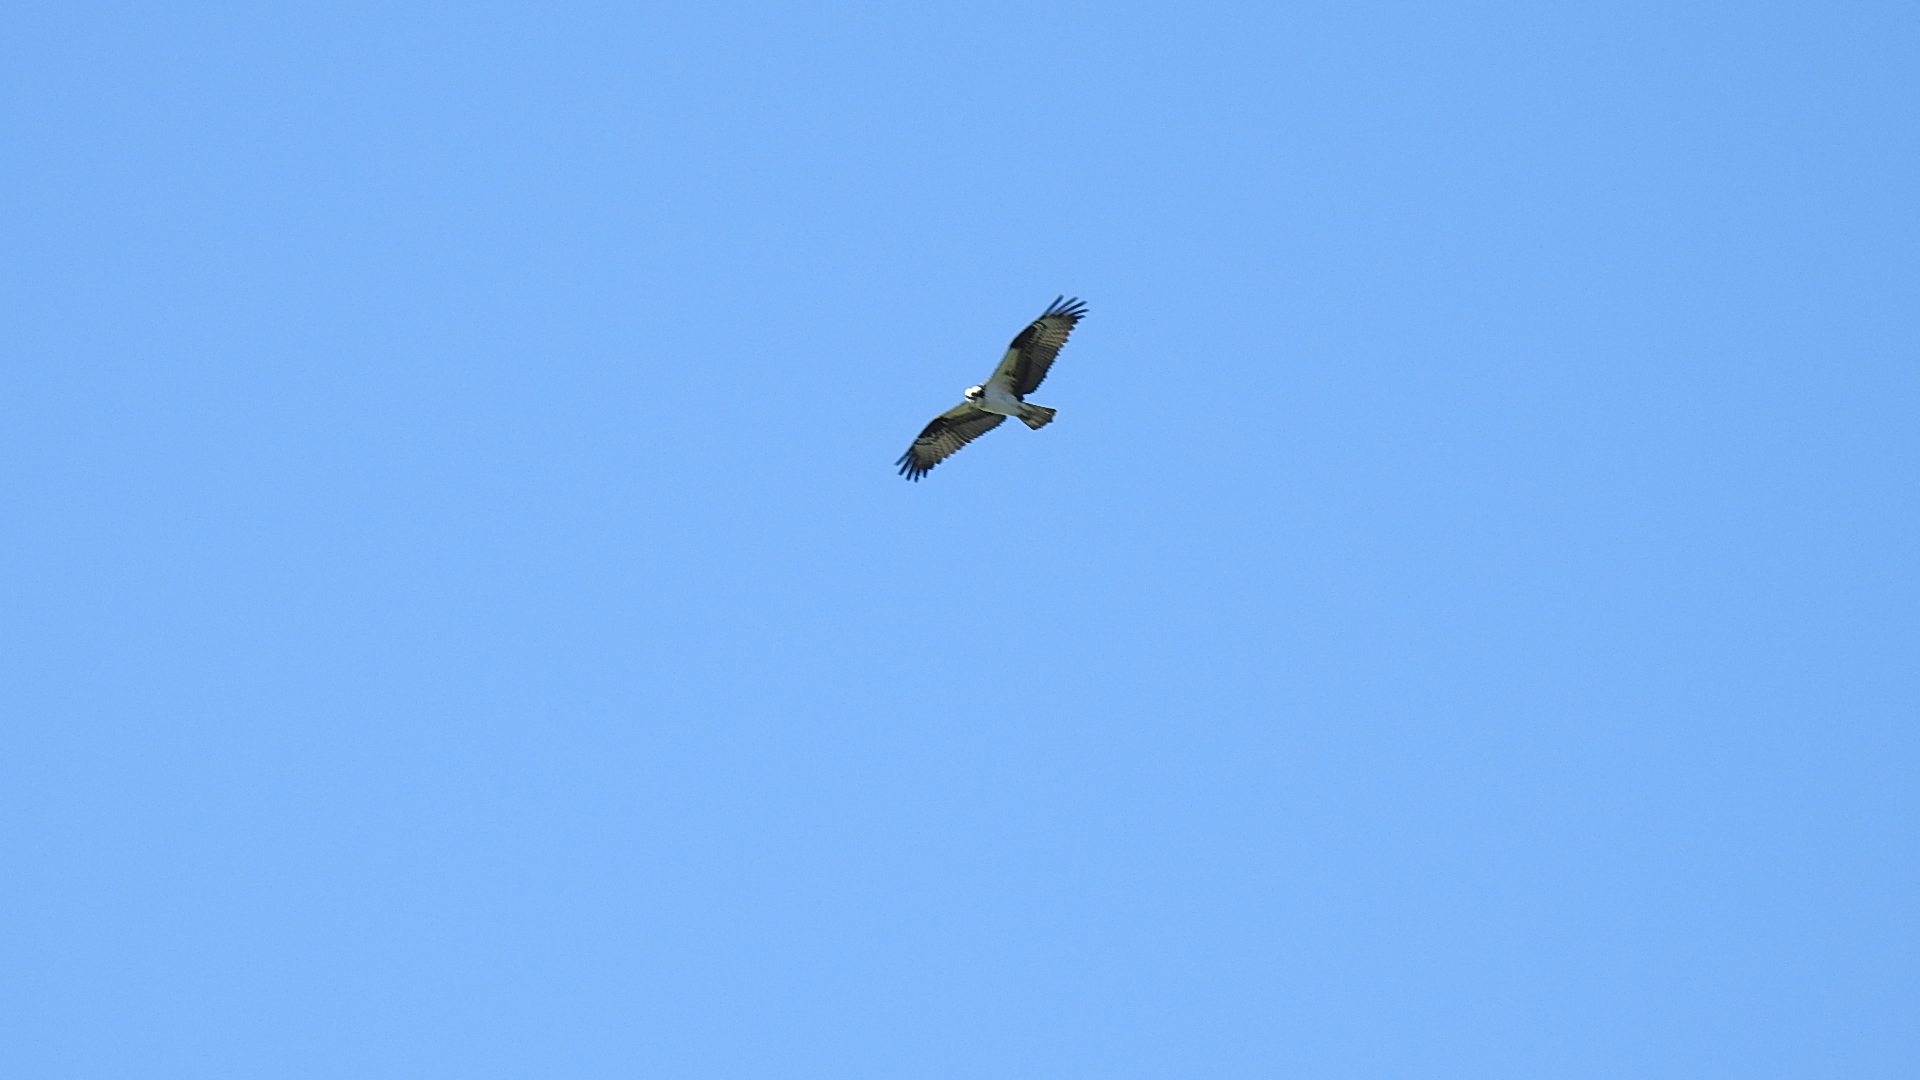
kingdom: Animalia
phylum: Chordata
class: Aves
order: Accipitriformes
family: Pandionidae
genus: Pandion
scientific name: Pandion haliaetus
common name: Osprey
